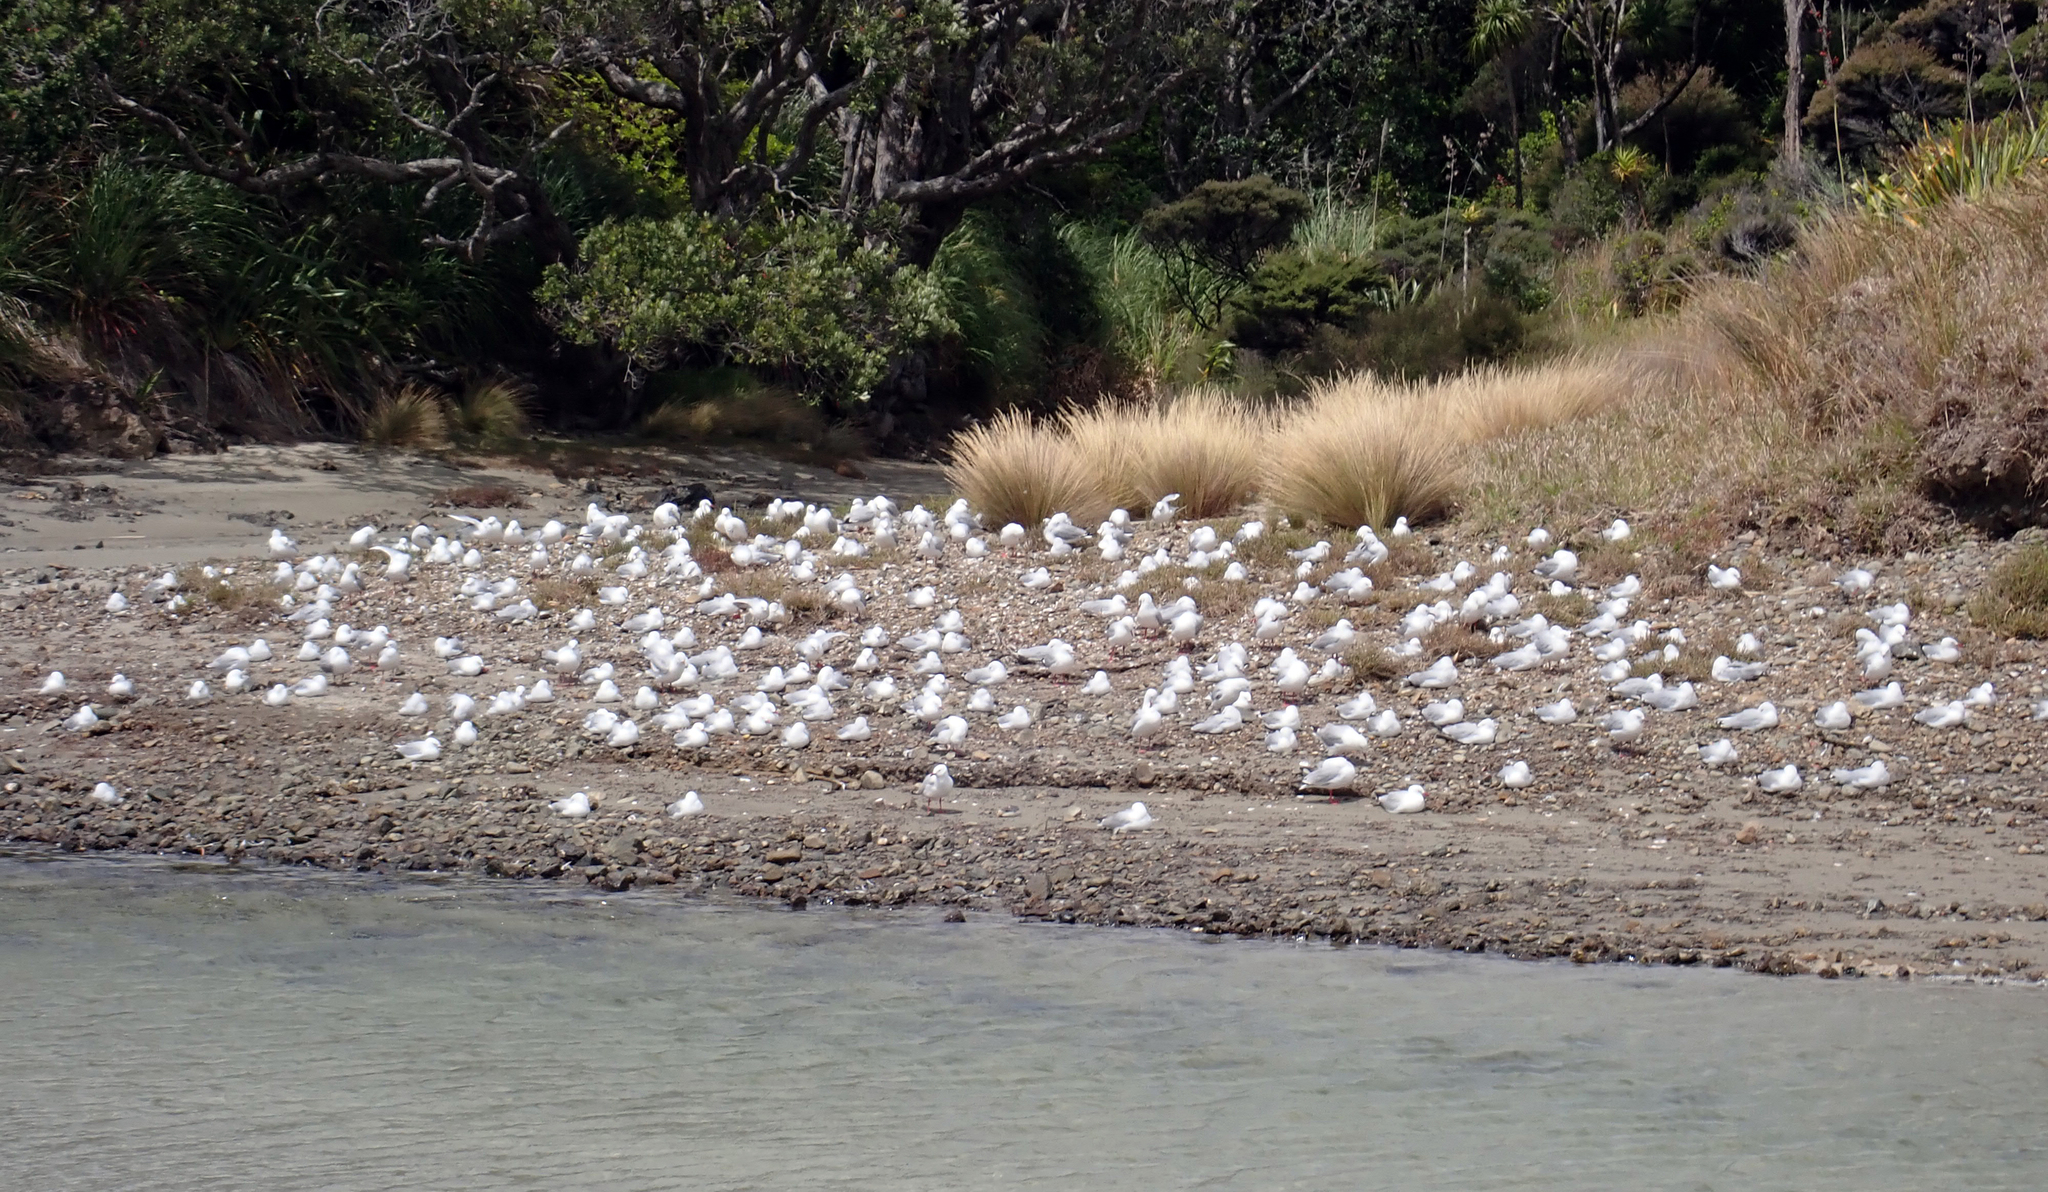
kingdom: Animalia
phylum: Chordata
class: Aves
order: Charadriiformes
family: Laridae
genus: Chroicocephalus
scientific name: Chroicocephalus novaehollandiae
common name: Silver gull
